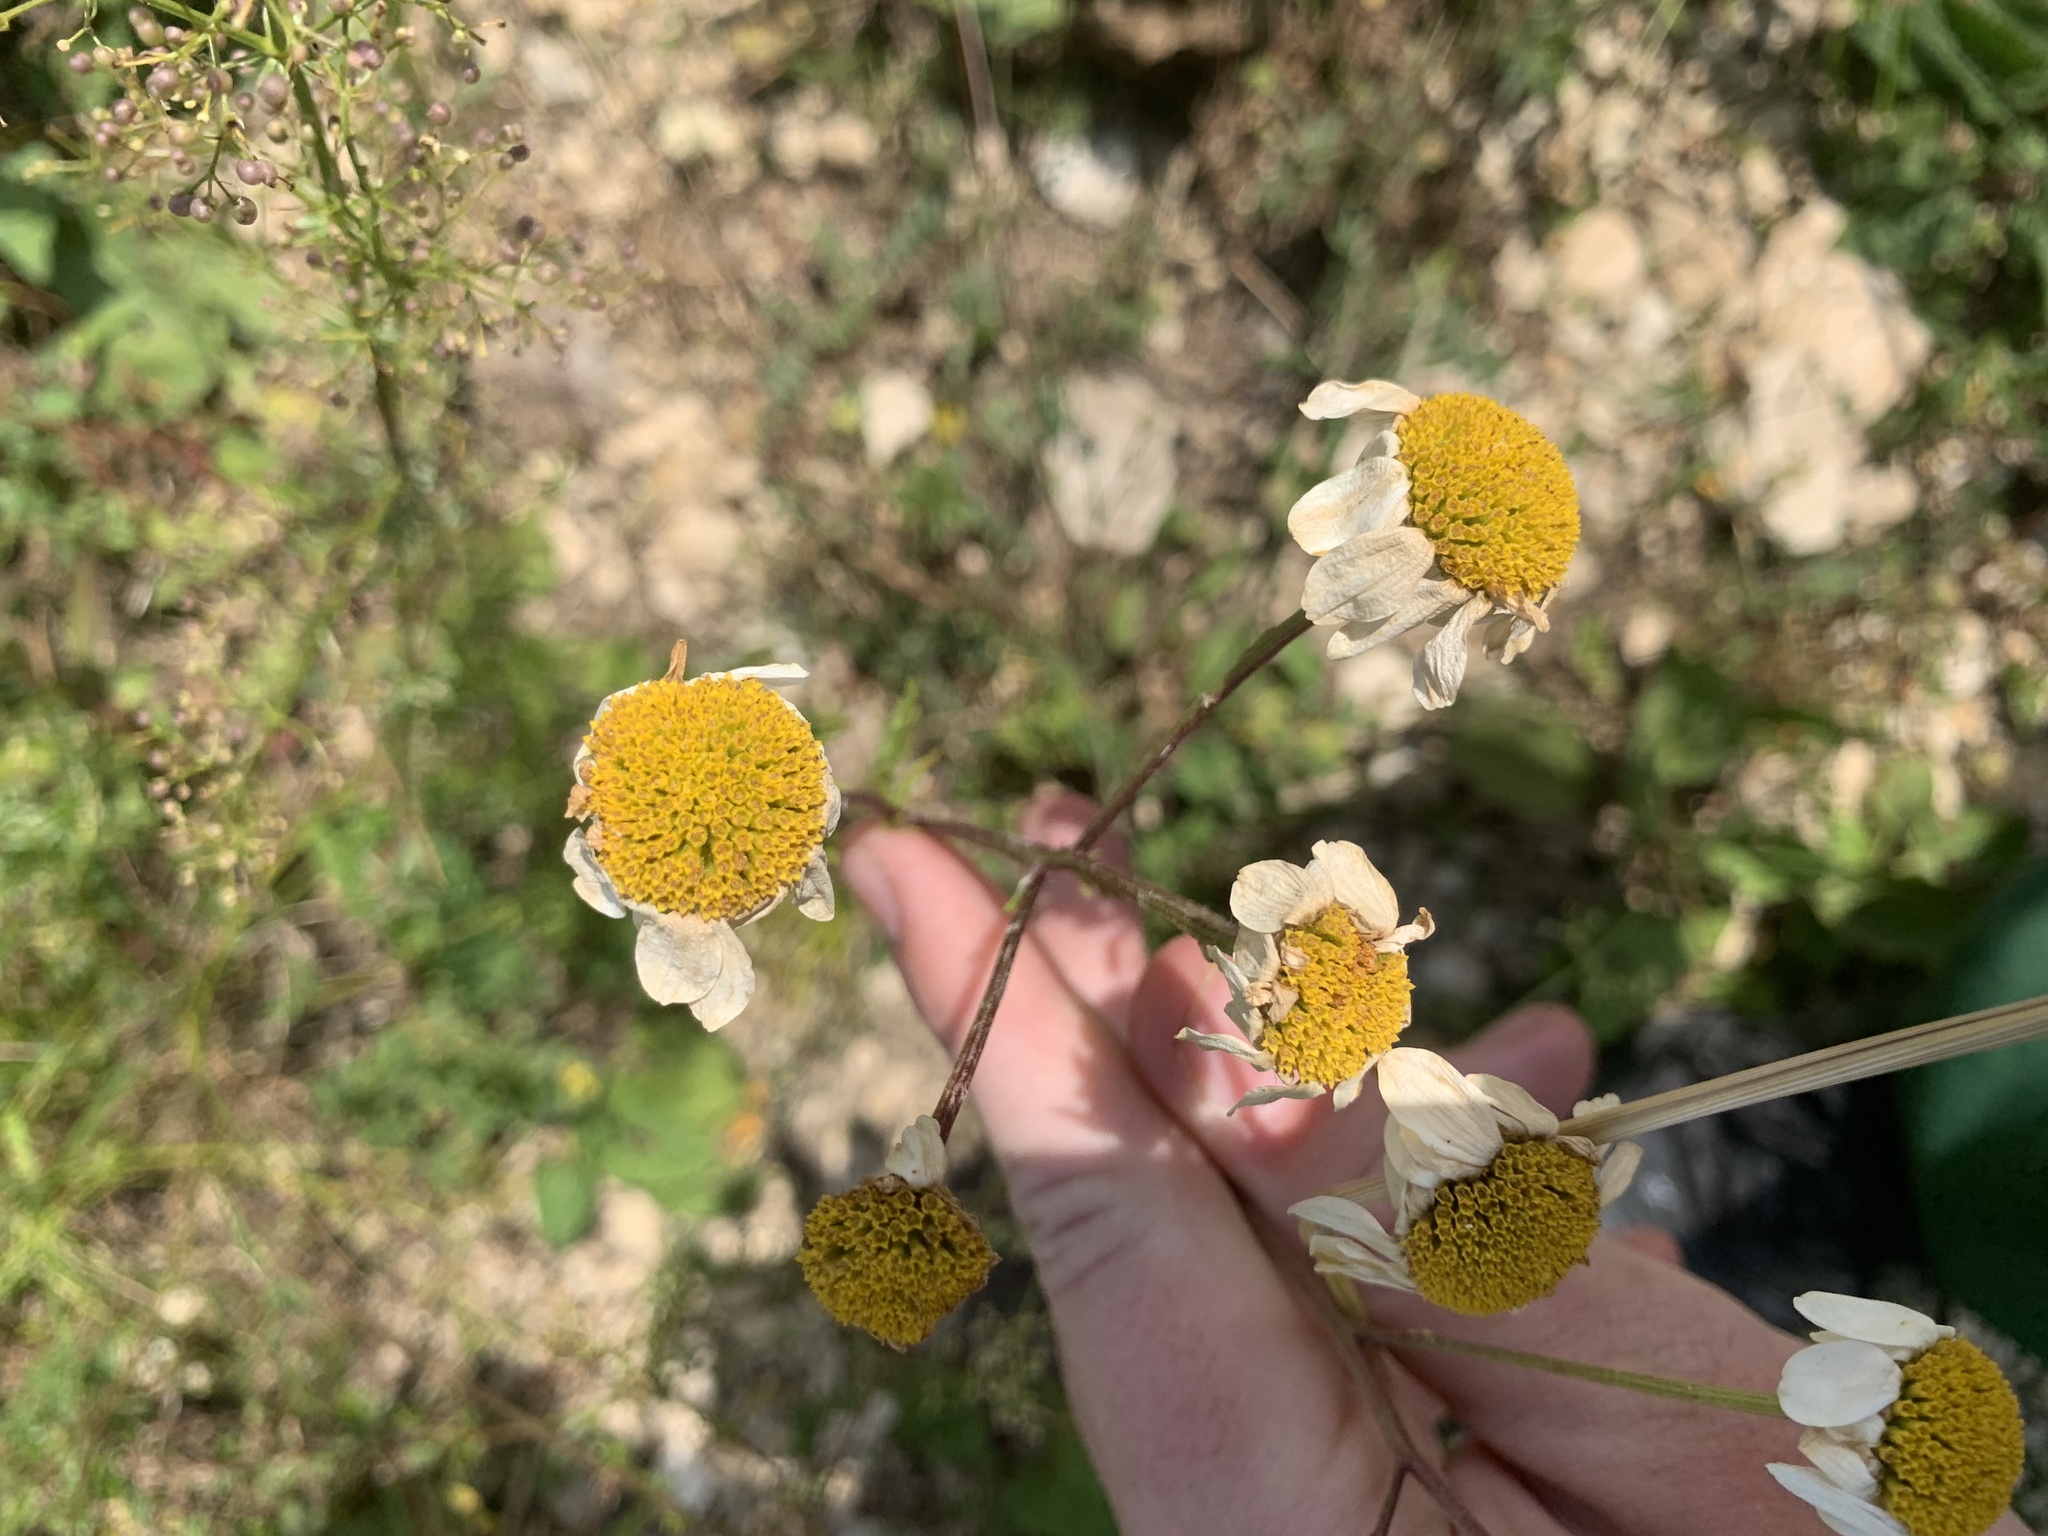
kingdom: Plantae
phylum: Tracheophyta
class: Magnoliopsida
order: Asterales
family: Asteraceae
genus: Tanacetum
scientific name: Tanacetum corymbosum
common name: Scentless feverfew
